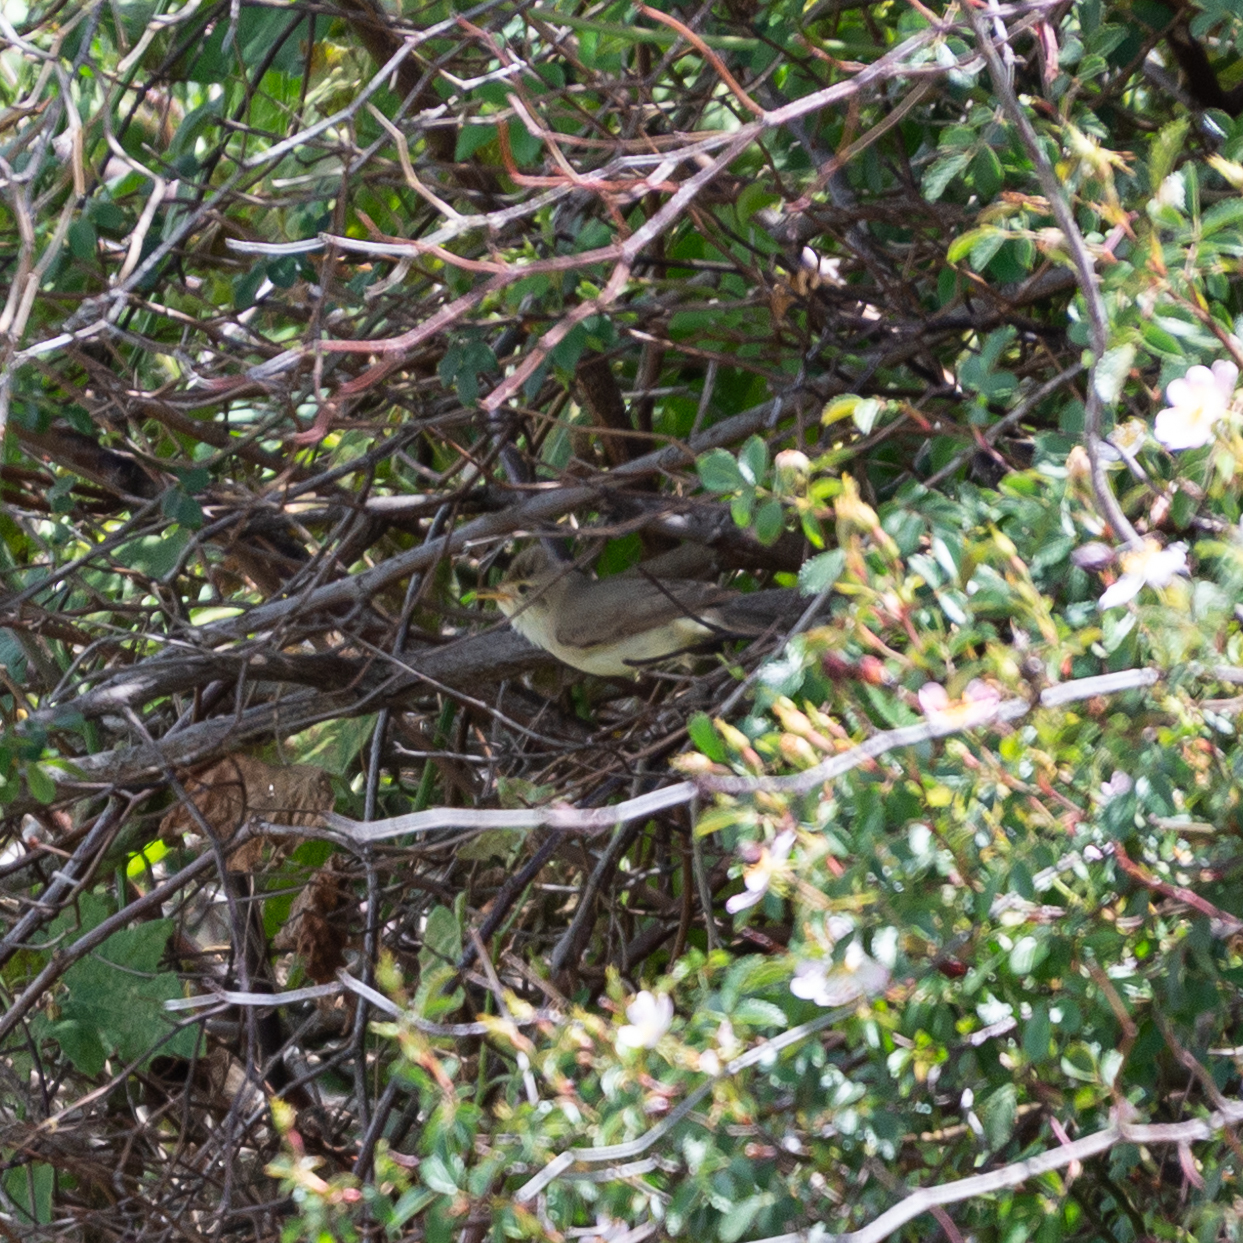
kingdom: Animalia
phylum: Chordata
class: Aves
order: Passeriformes
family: Acrocephalidae
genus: Hippolais
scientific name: Hippolais polyglotta
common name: Melodious warbler
